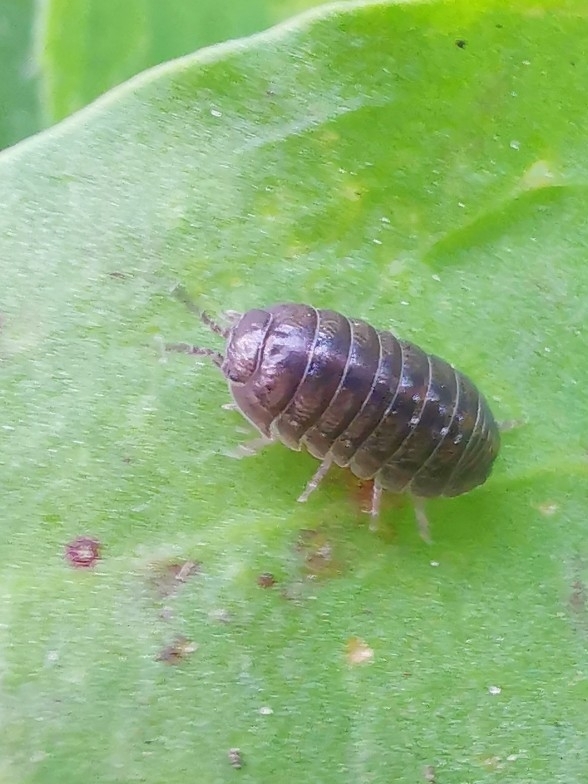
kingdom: Animalia
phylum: Arthropoda
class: Malacostraca
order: Isopoda
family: Armadillidiidae
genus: Armadillidium
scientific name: Armadillidium vulgare
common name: Common pill woodlouse
